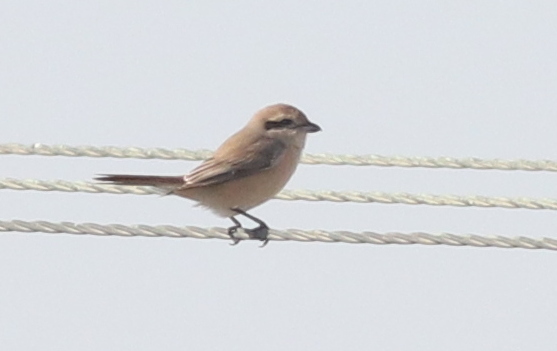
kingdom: Animalia
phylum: Chordata
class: Aves
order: Passeriformes
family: Laniidae
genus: Lanius
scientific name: Lanius isabellinus
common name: Isabelline shrike
